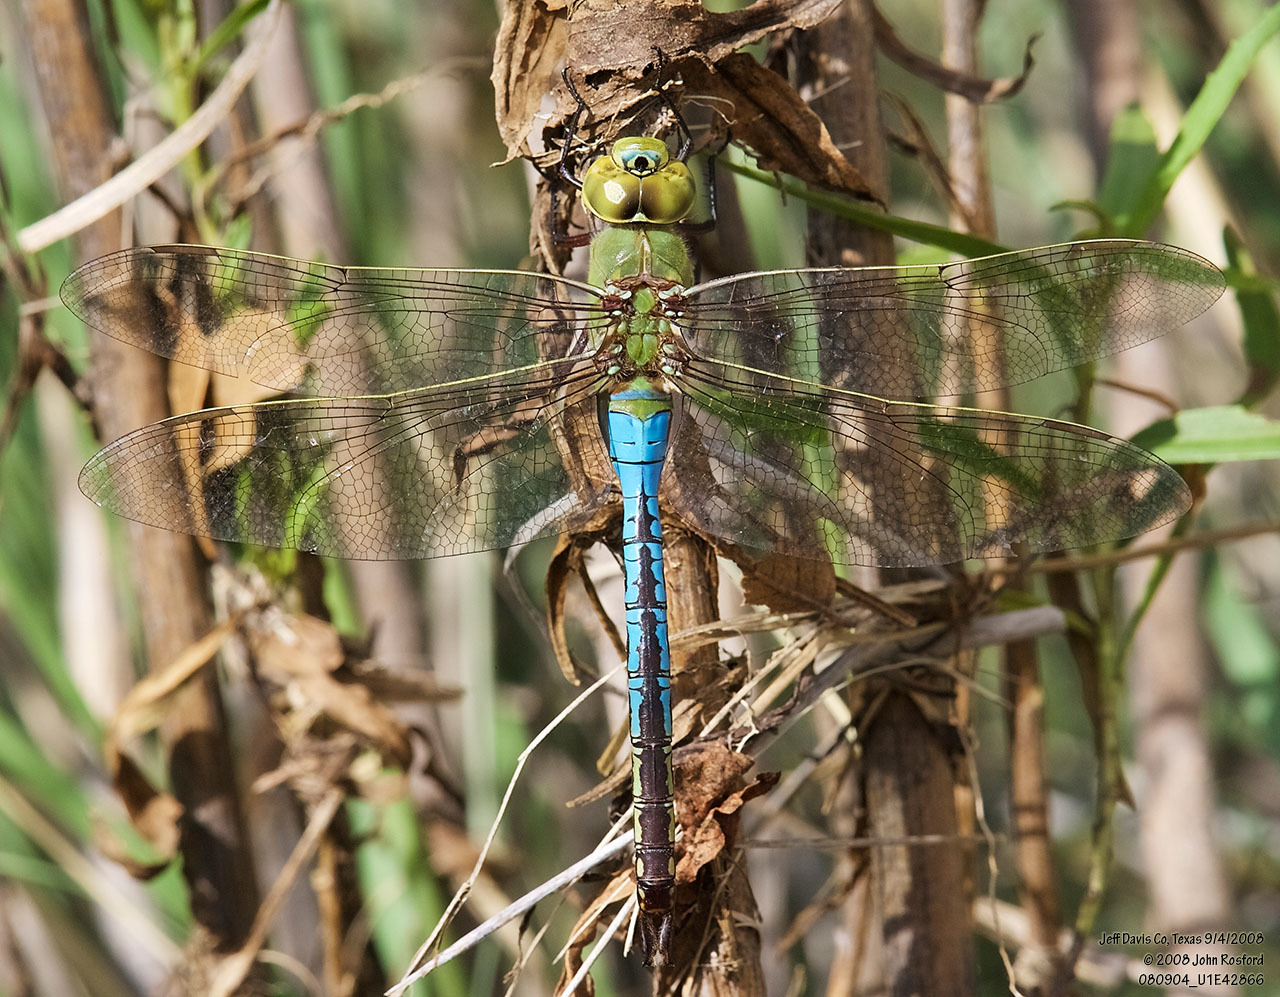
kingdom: Animalia
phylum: Arthropoda
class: Insecta
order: Odonata
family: Aeshnidae
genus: Anax
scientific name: Anax junius
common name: Common green darner
